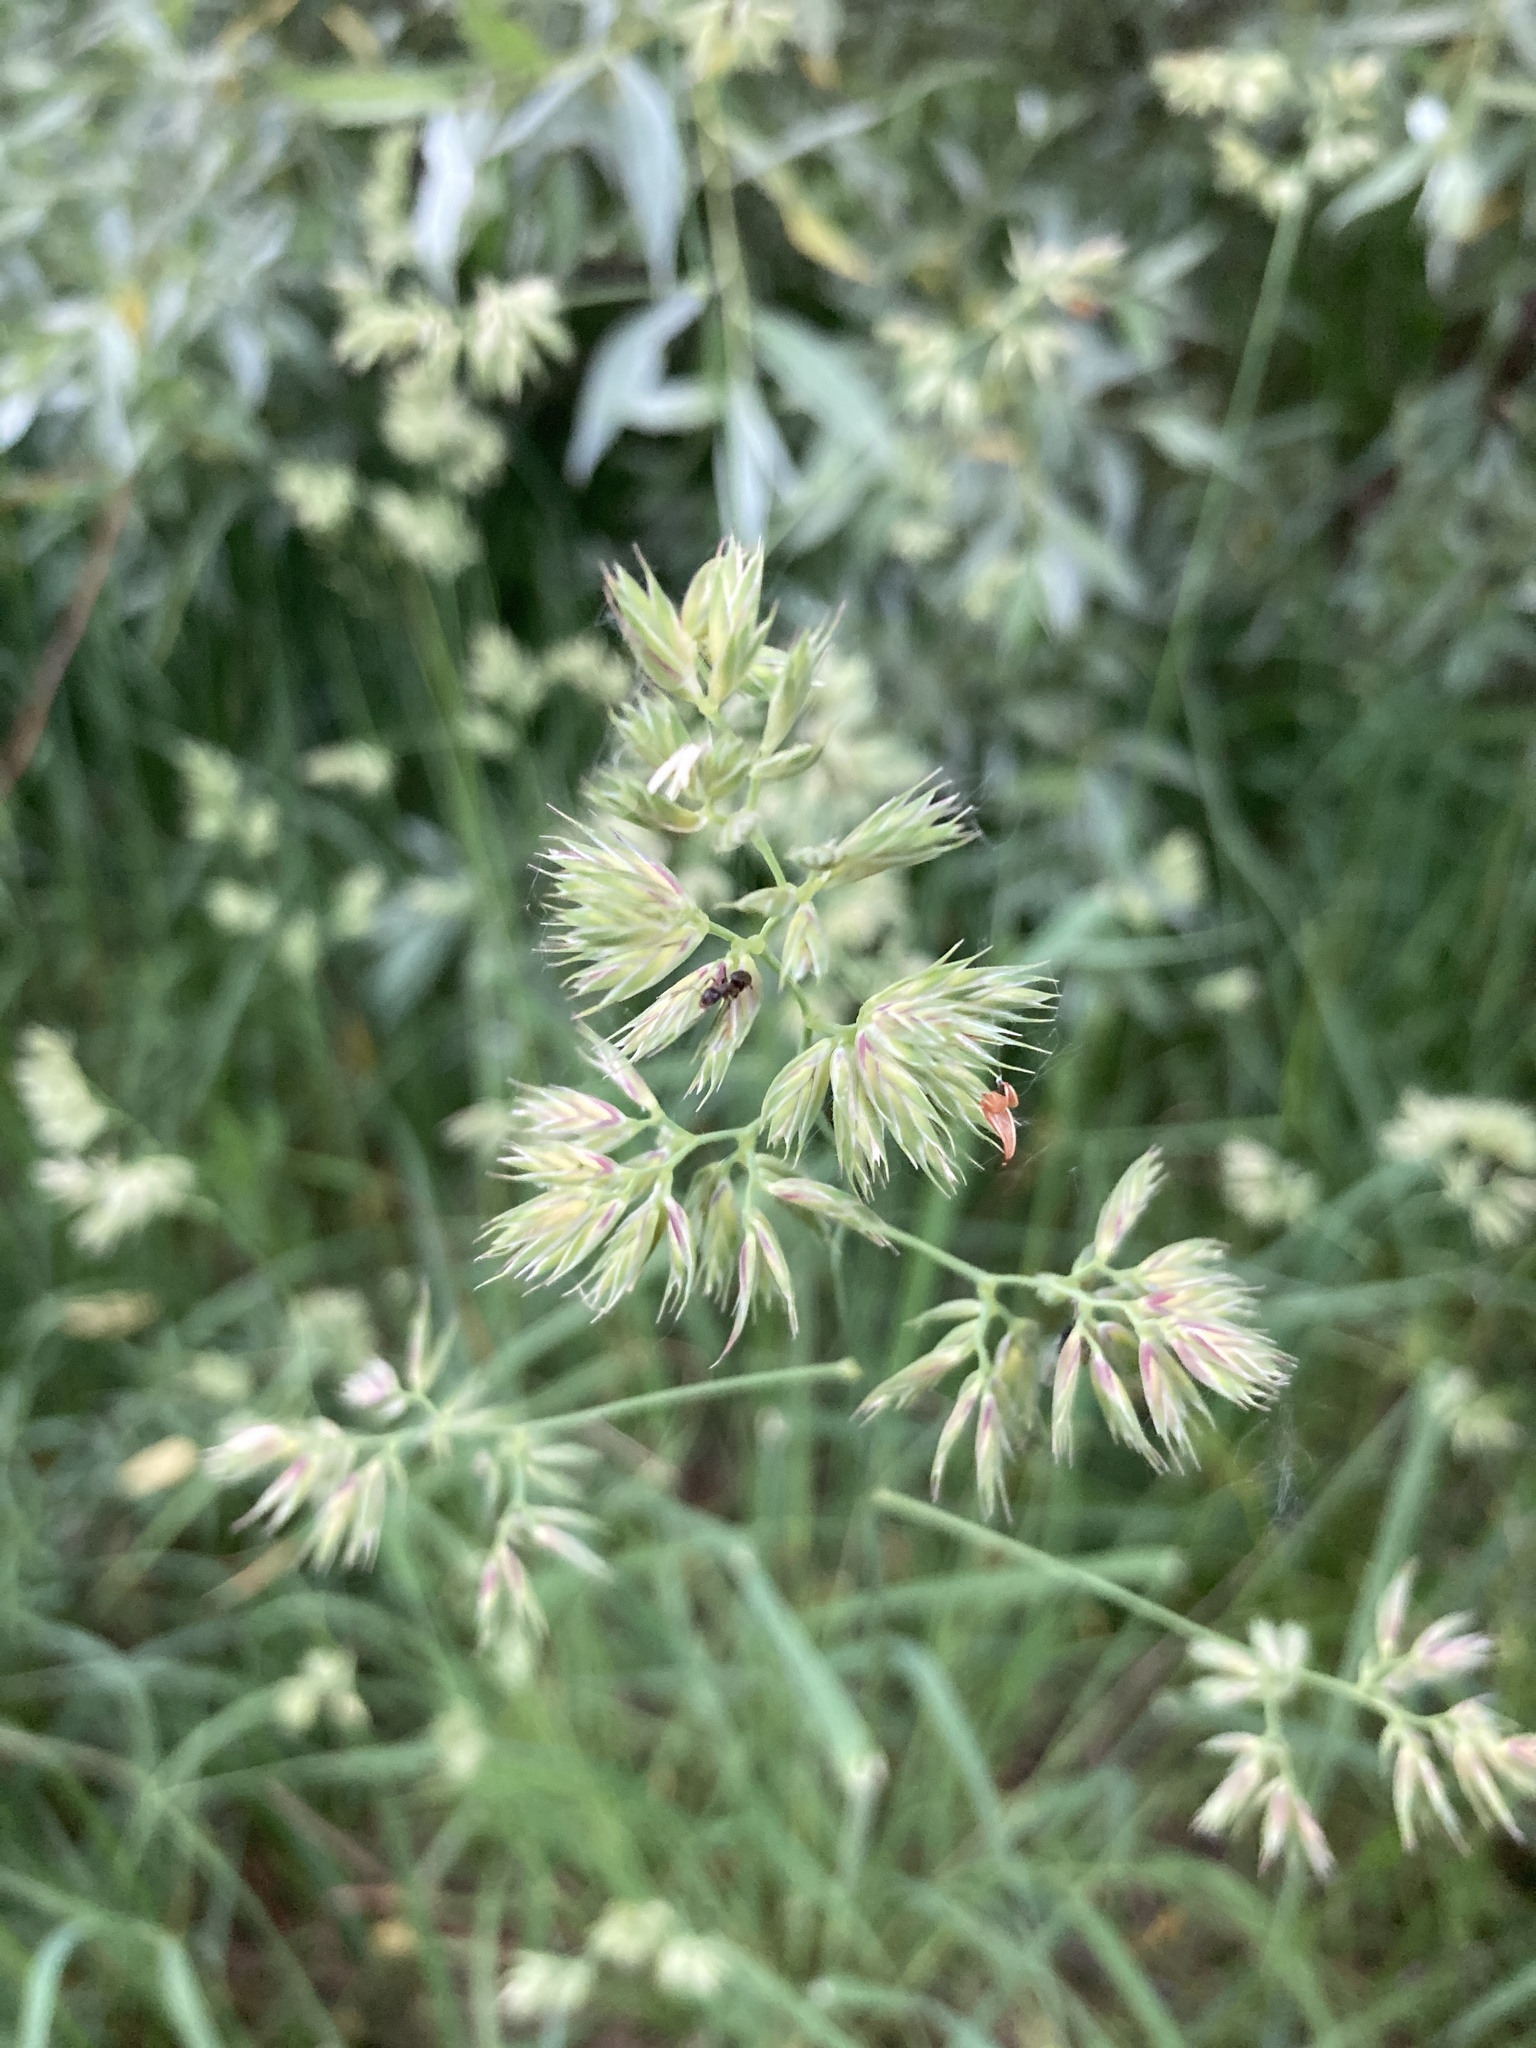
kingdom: Plantae
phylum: Tracheophyta
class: Liliopsida
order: Poales
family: Poaceae
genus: Dactylis
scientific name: Dactylis glomerata
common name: Orchardgrass
